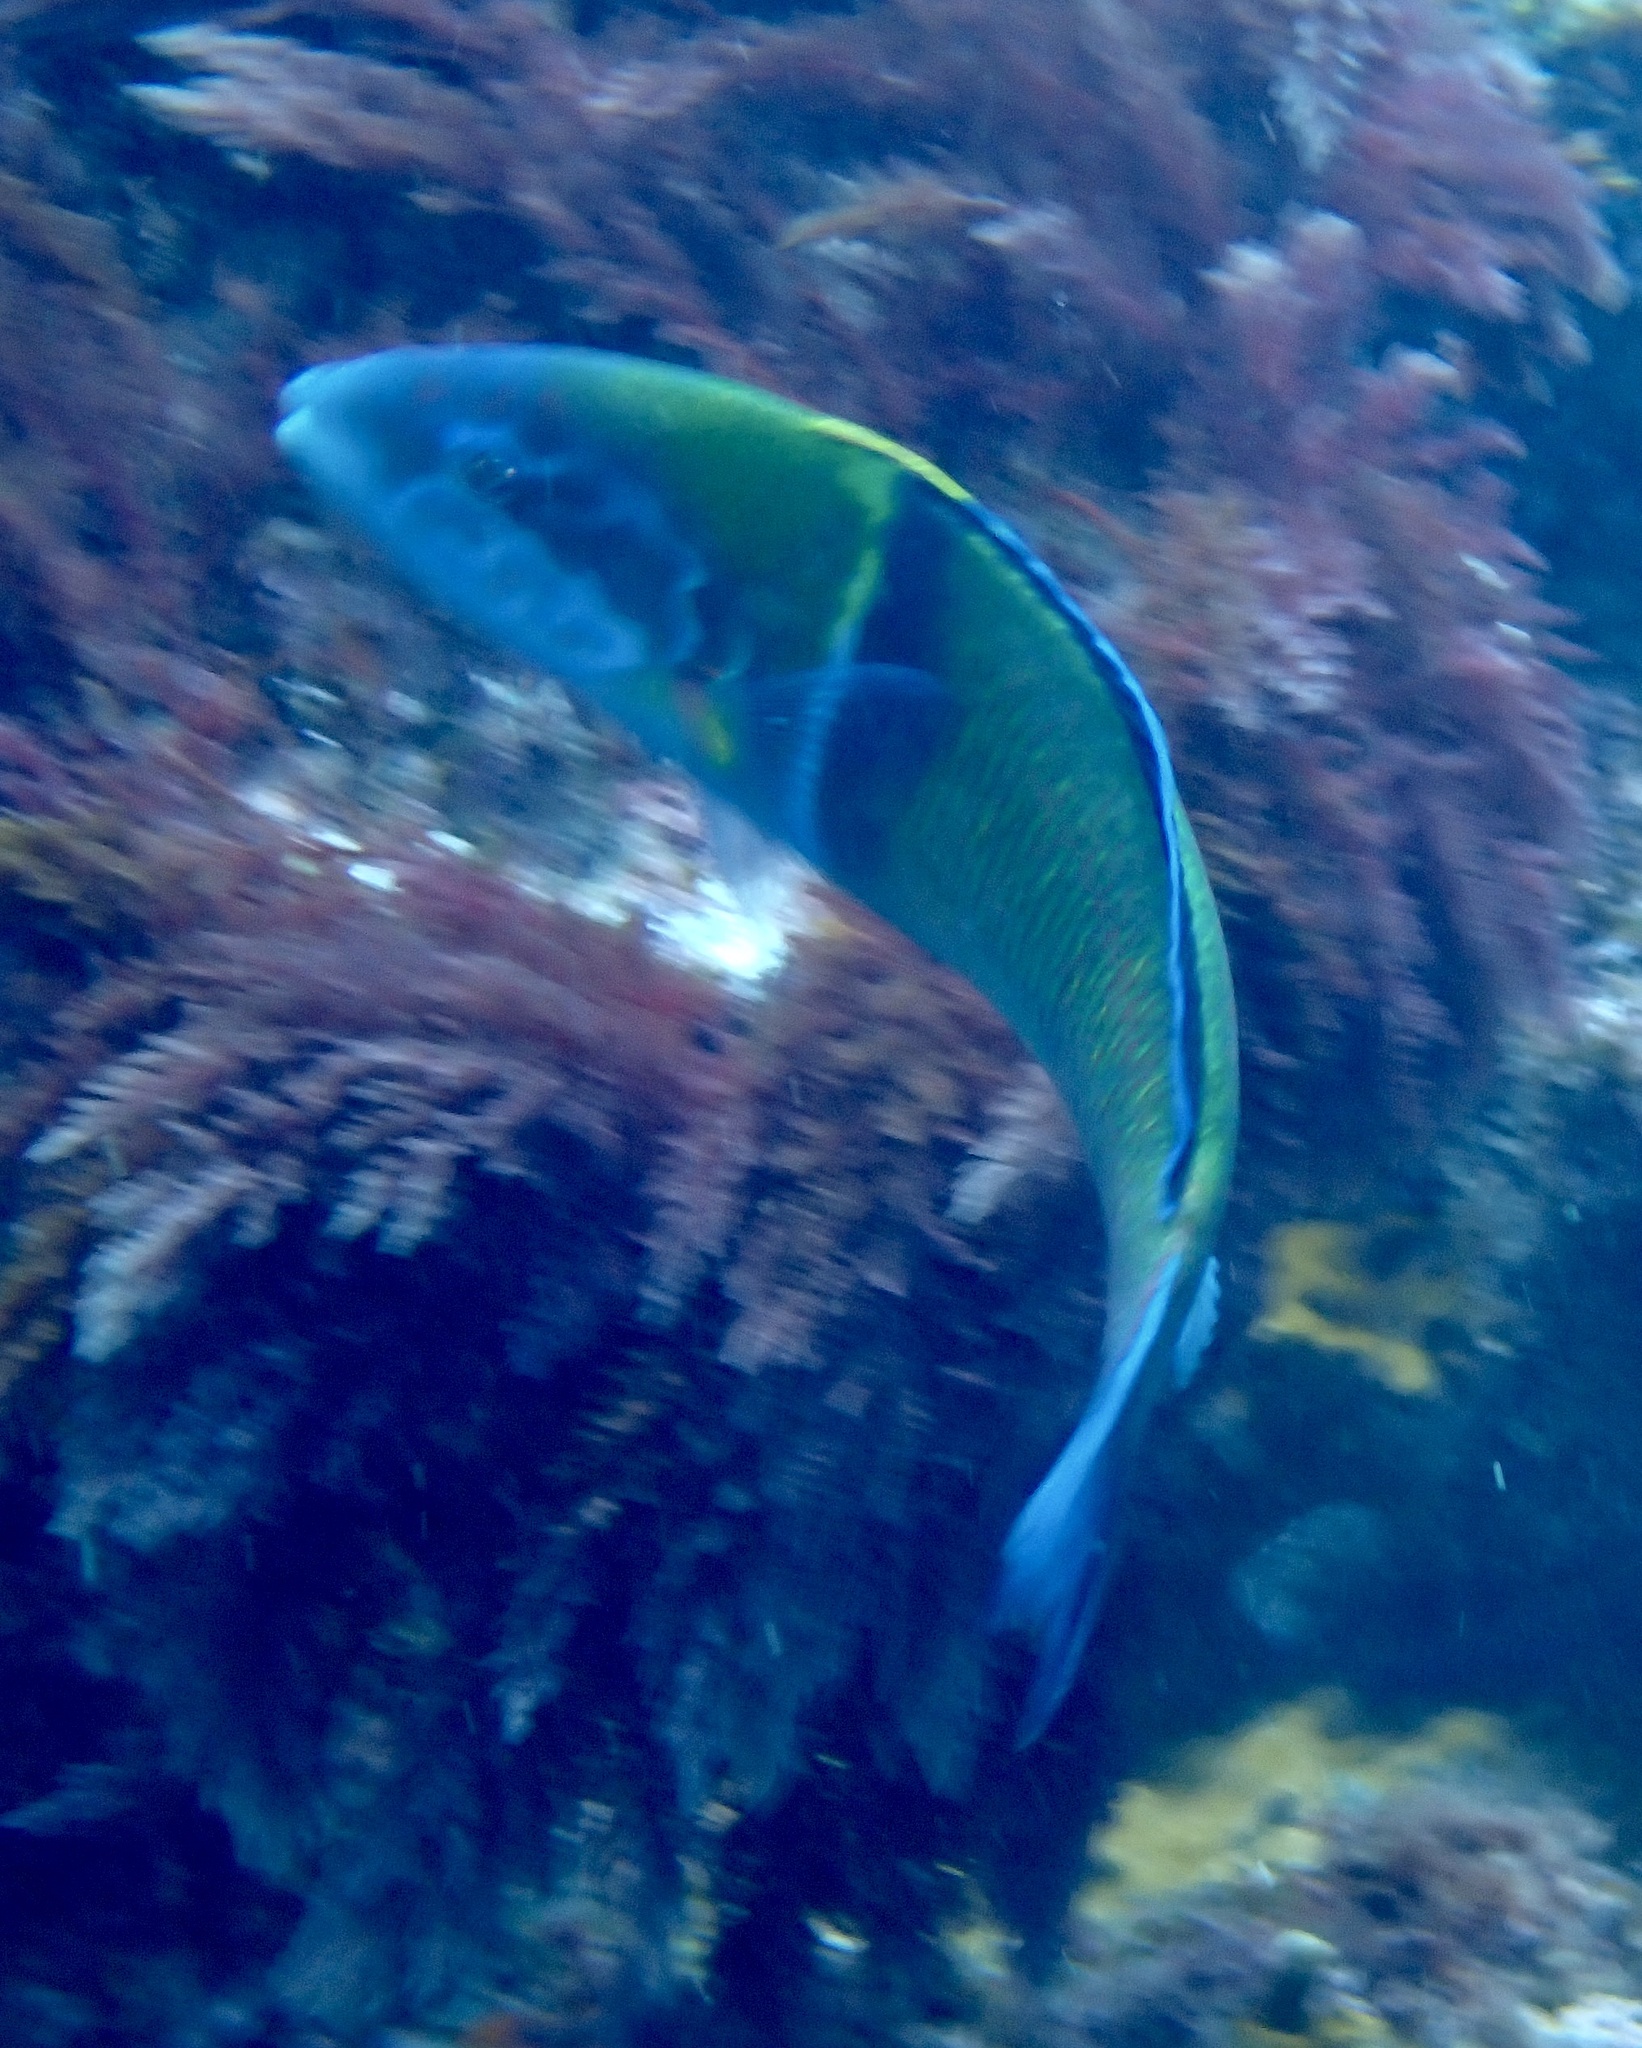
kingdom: Animalia
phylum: Chordata
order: Perciformes
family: Labridae
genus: Thalassoma
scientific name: Thalassoma pavo
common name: Ornate wrasse
